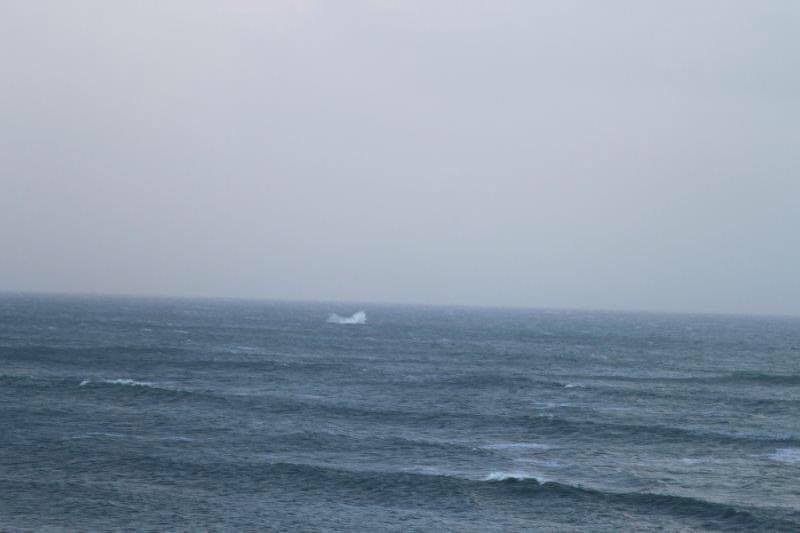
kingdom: Animalia
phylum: Chordata
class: Mammalia
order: Cetacea
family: Balaenopteridae
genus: Megaptera
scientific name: Megaptera novaeangliae
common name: Humpback whale
